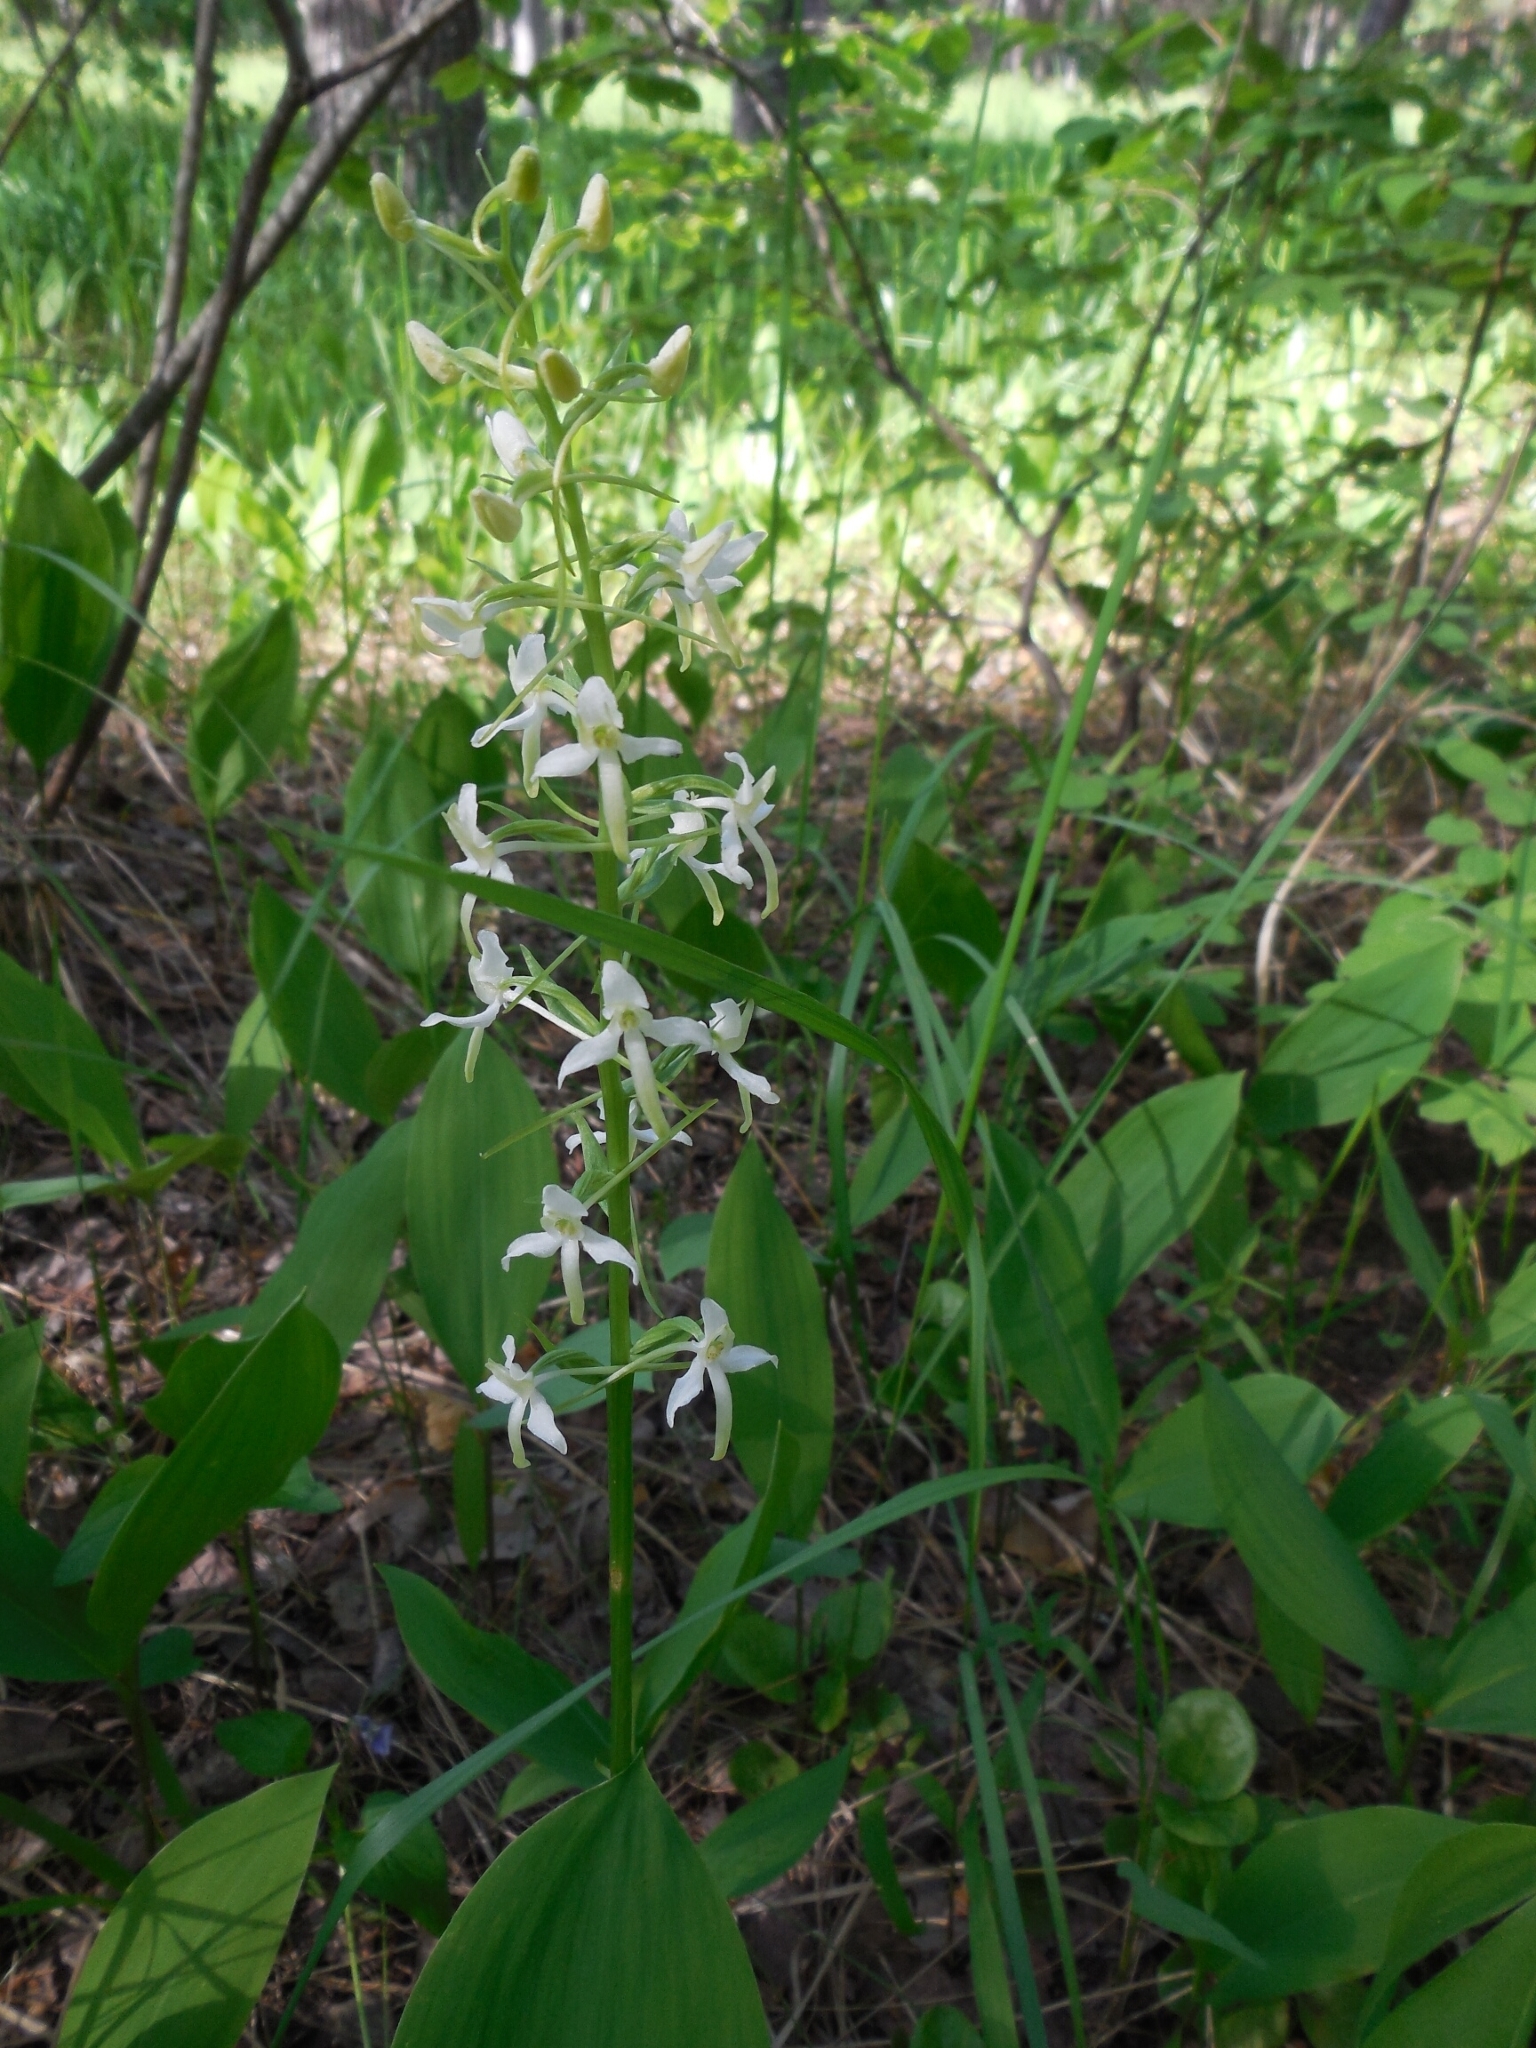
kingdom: Plantae
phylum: Tracheophyta
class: Liliopsida
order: Asparagales
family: Orchidaceae
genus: Platanthera
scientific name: Platanthera bifolia
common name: Lesser butterfly-orchid
